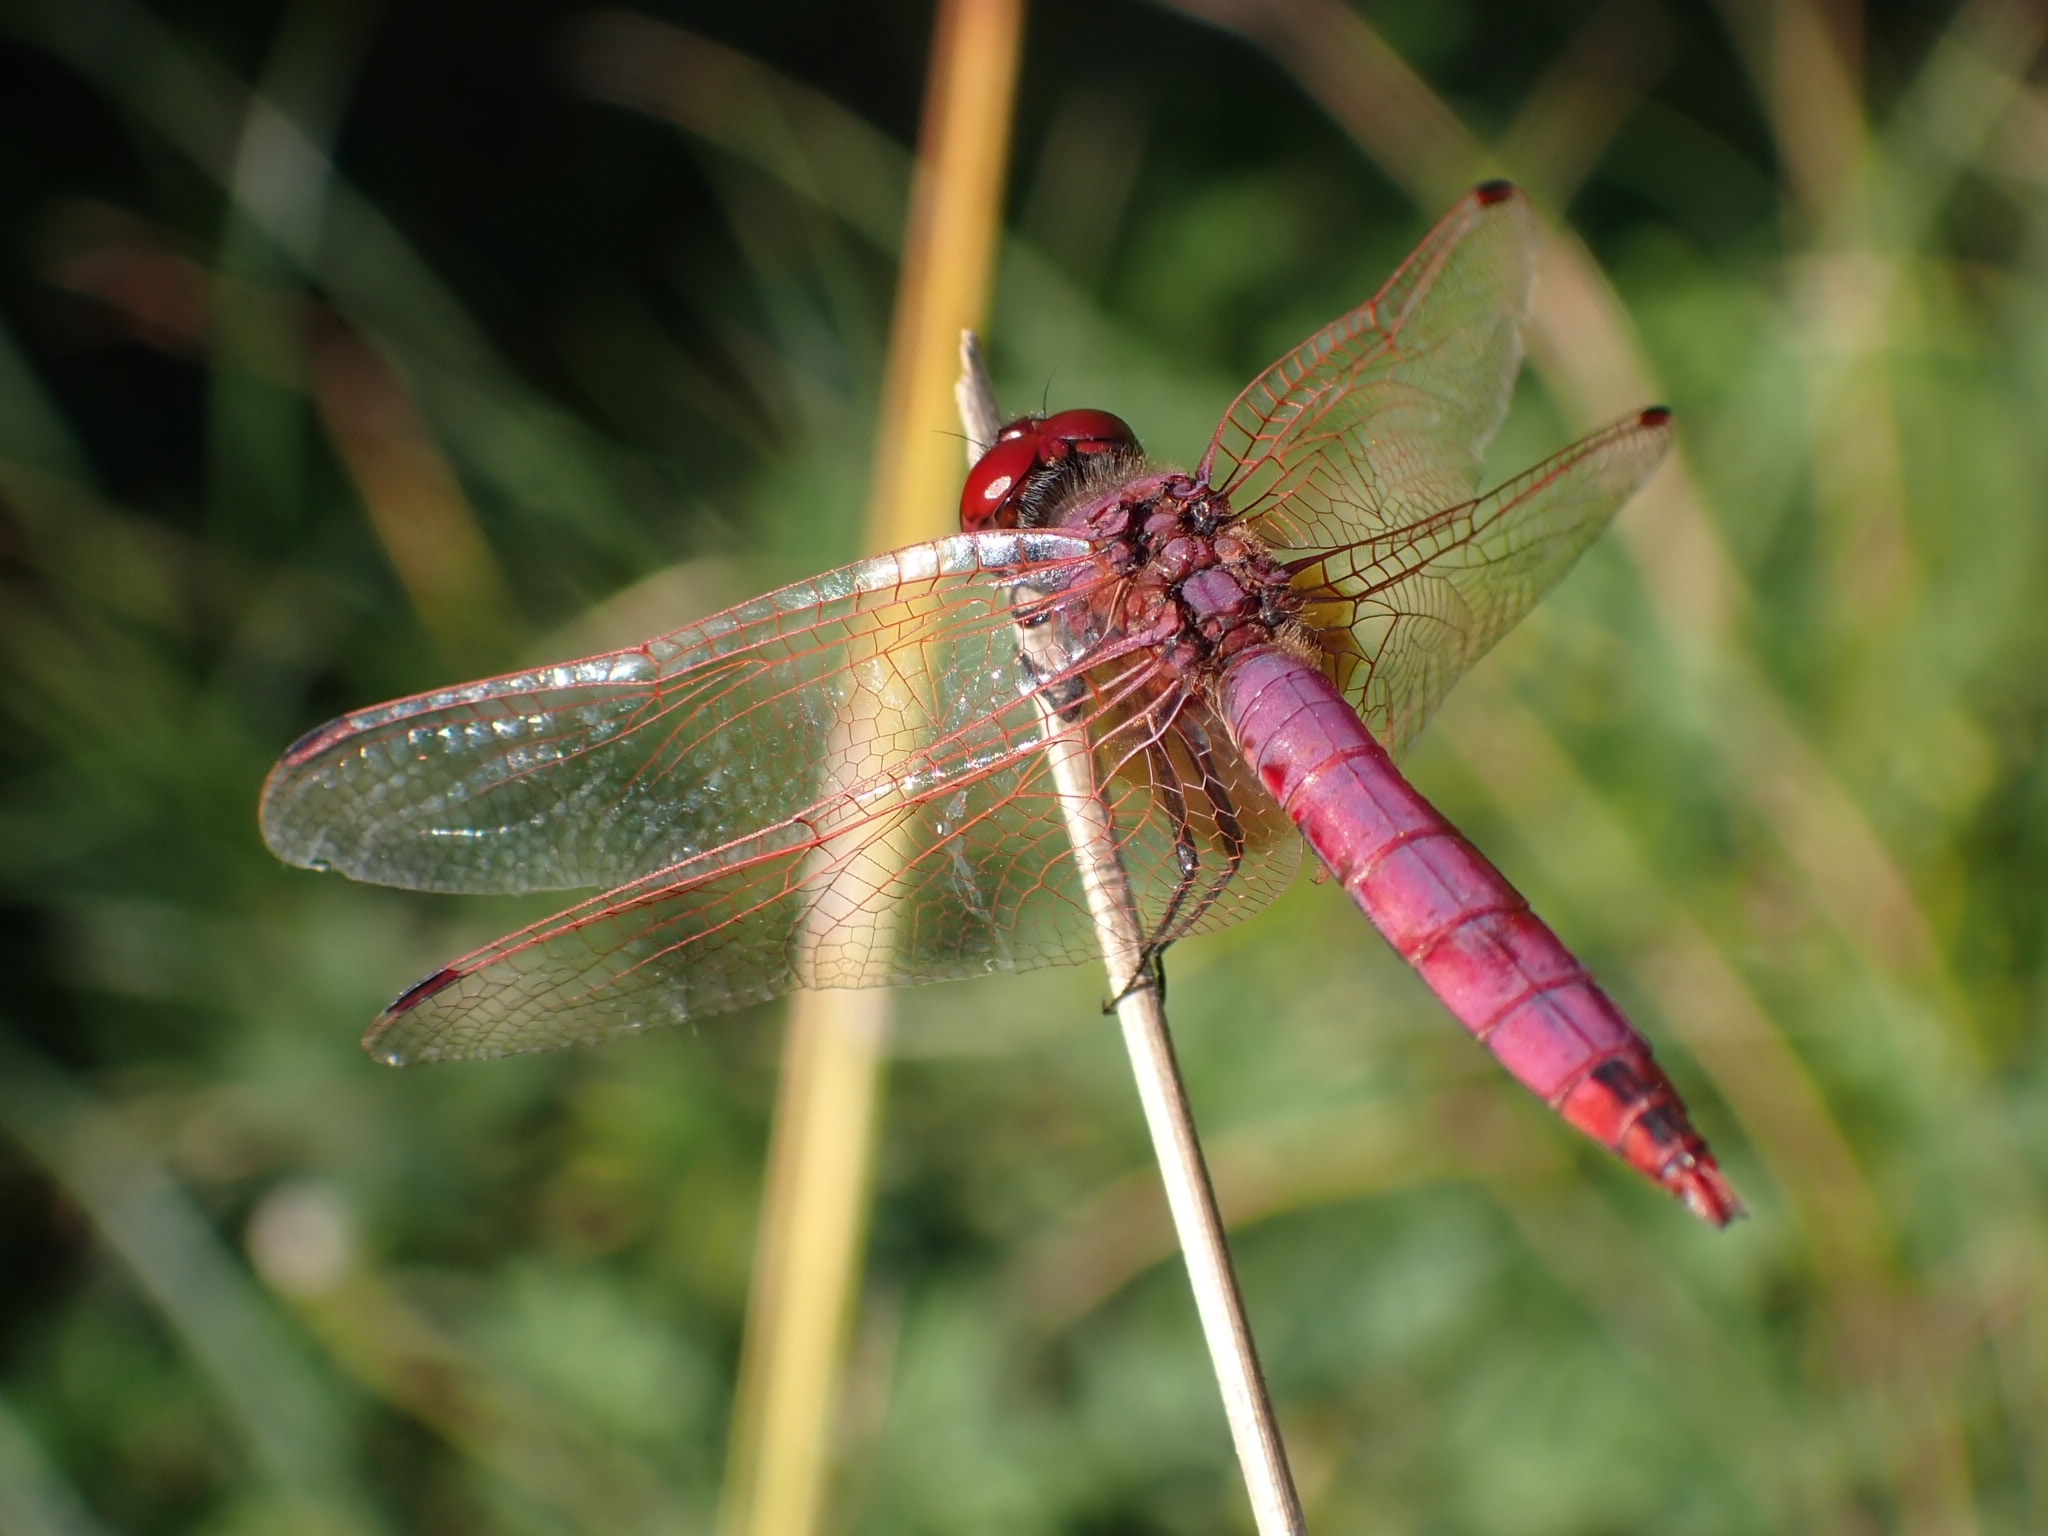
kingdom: Animalia
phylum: Arthropoda
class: Insecta
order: Odonata
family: Libellulidae
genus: Trithemis
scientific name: Trithemis annulata
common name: Violet dropwing
